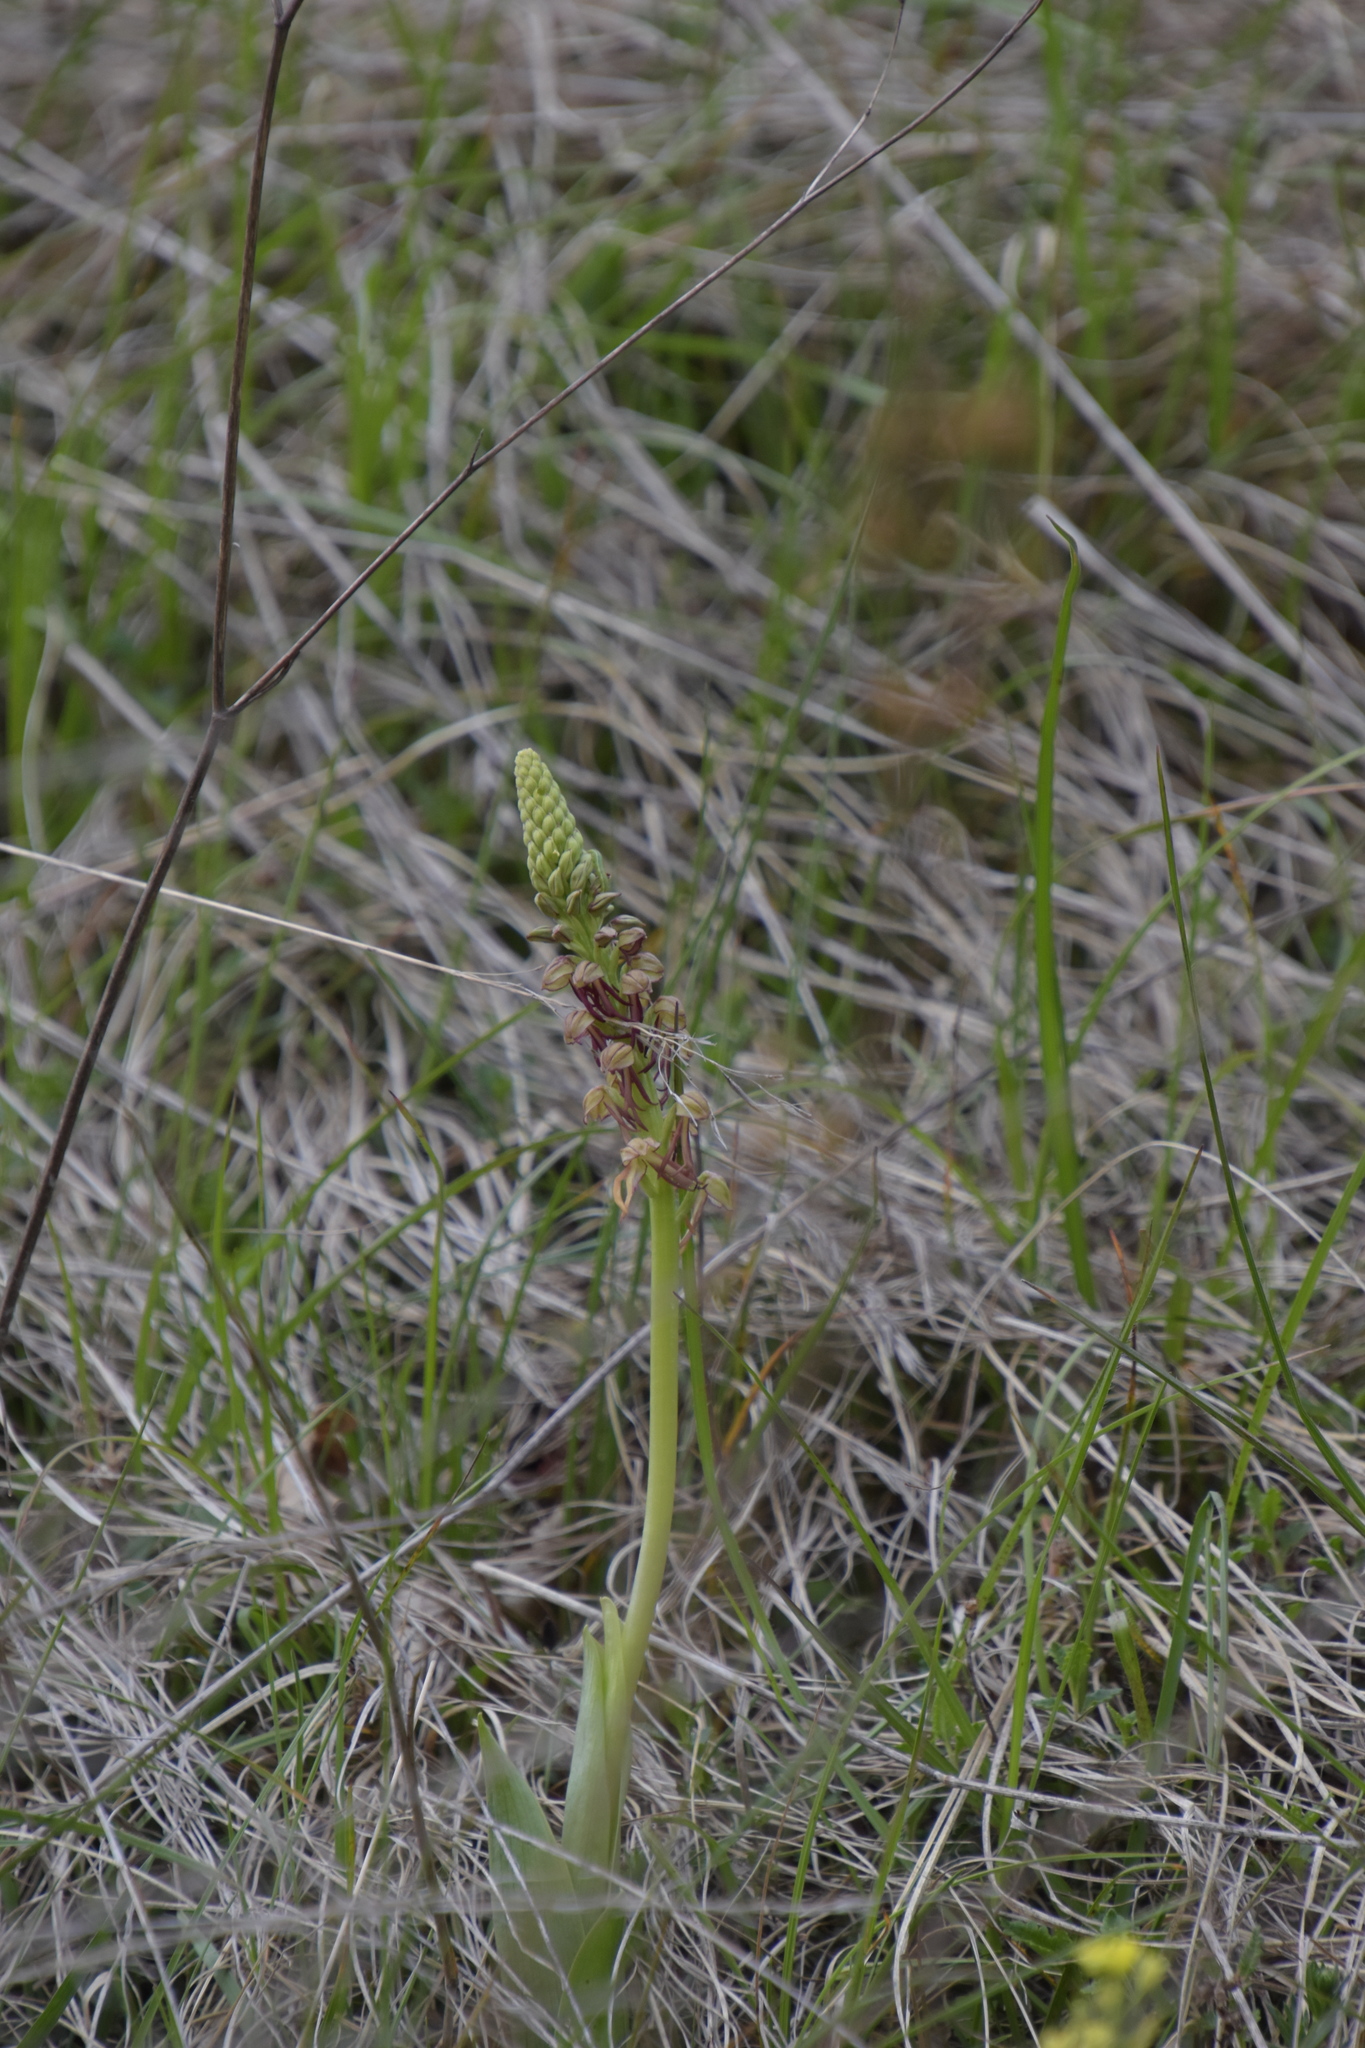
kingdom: Plantae
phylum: Tracheophyta
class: Liliopsida
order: Asparagales
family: Orchidaceae
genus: Orchis
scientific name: Orchis anthropophora
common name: Man orchid
